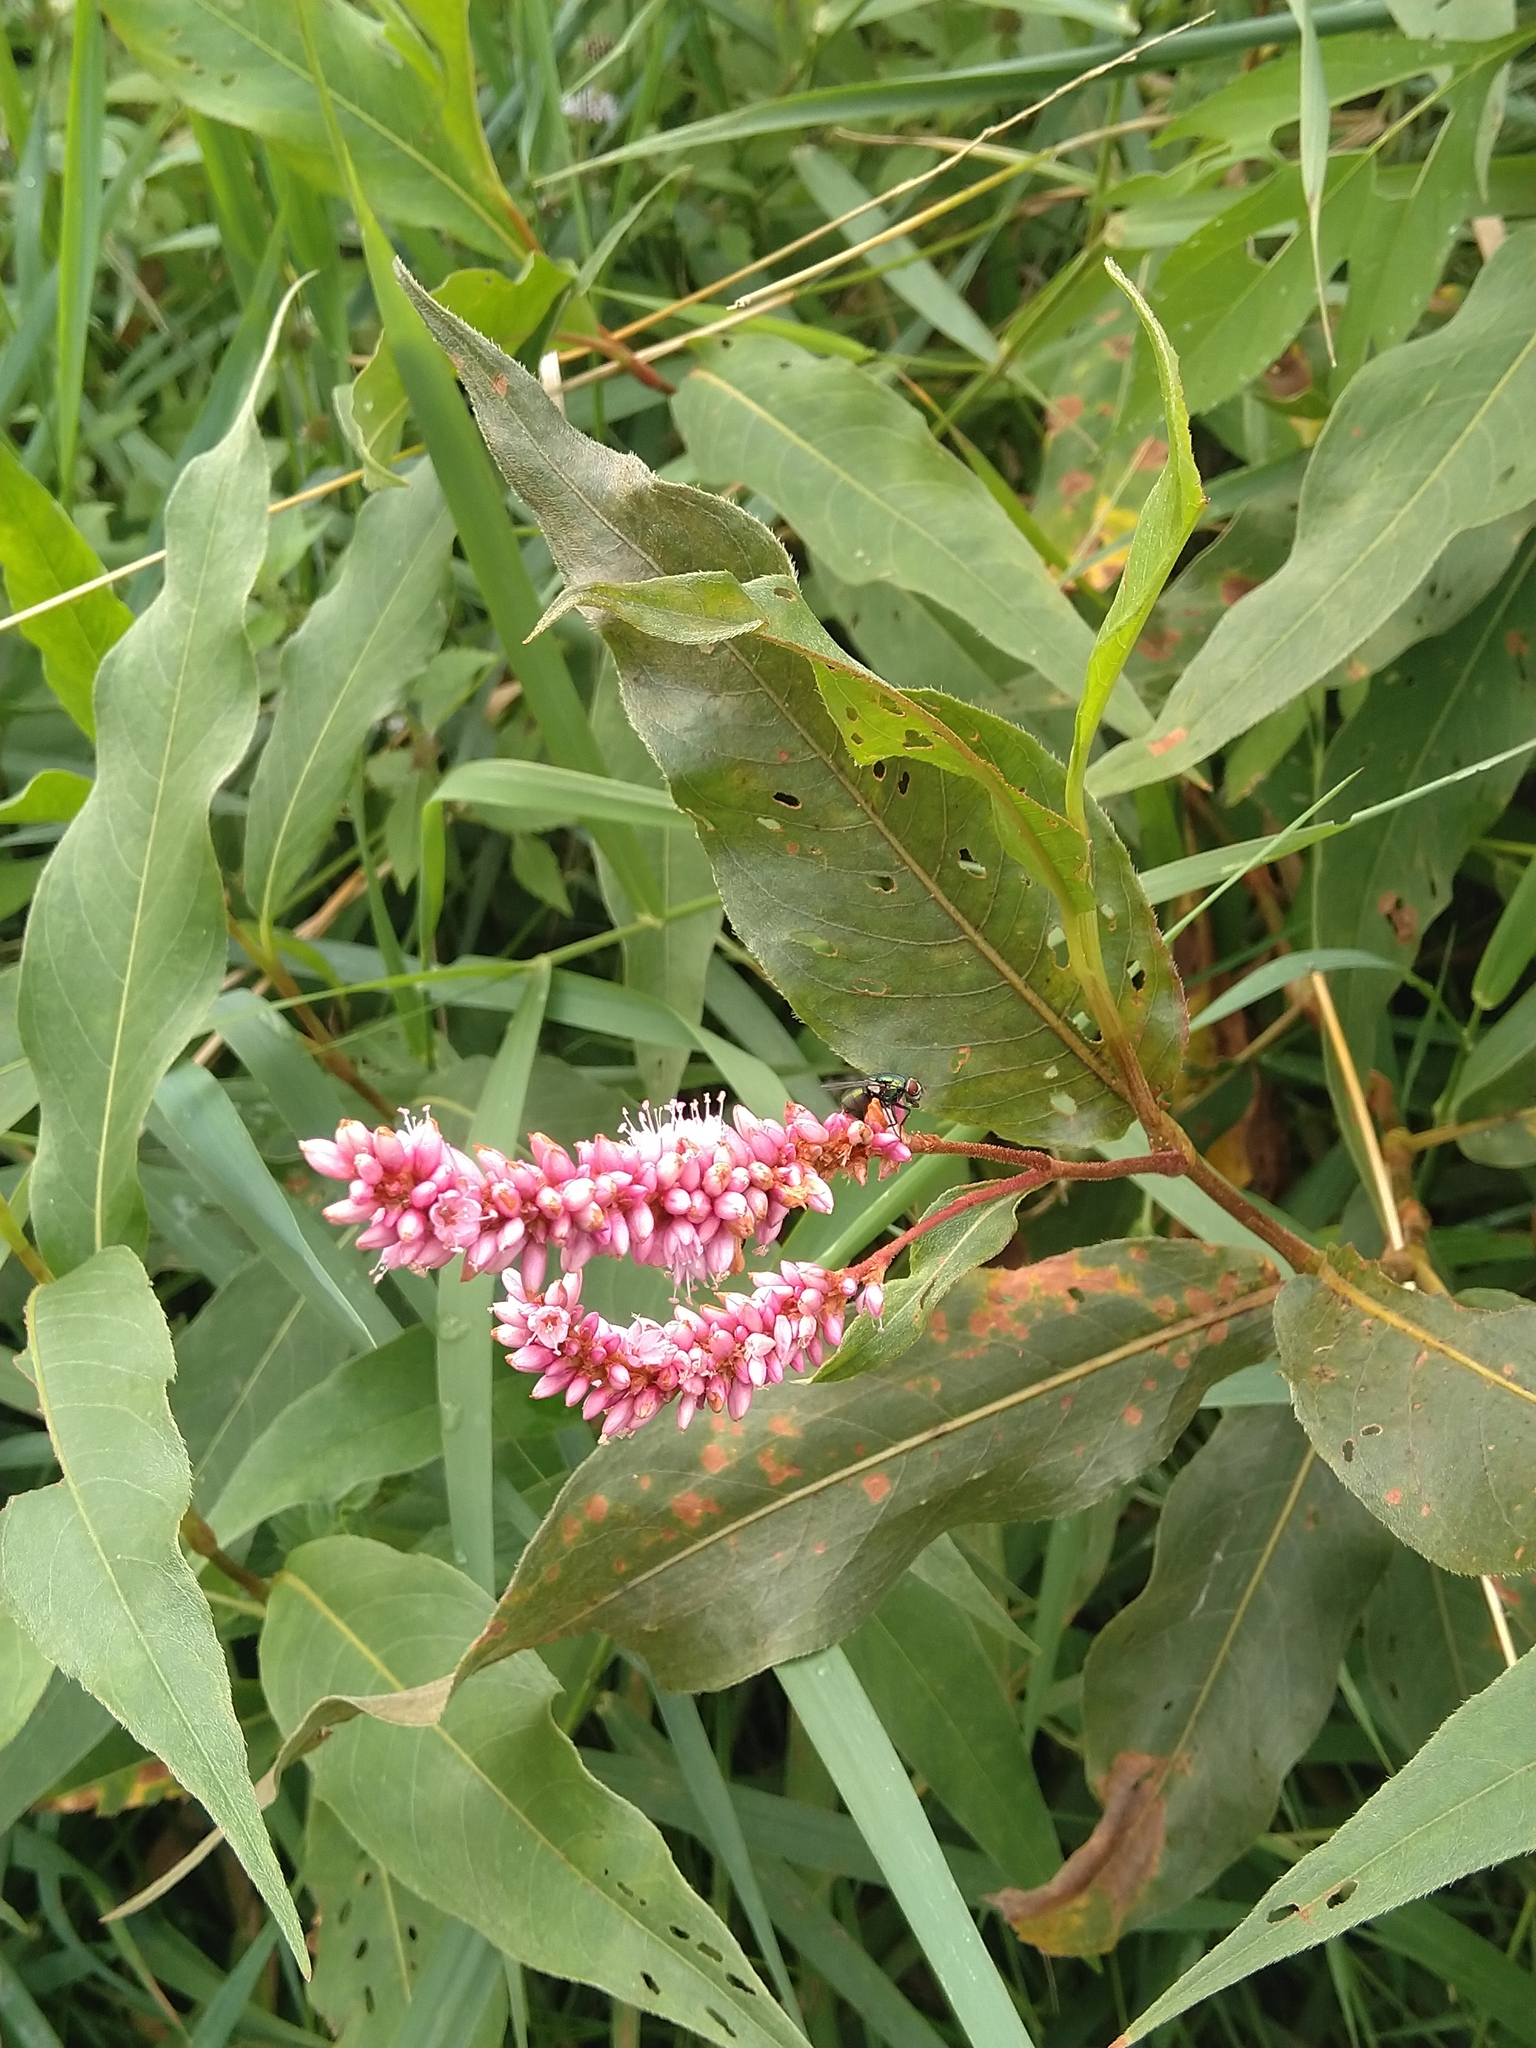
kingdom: Plantae
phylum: Tracheophyta
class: Magnoliopsida
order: Caryophyllales
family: Polygonaceae
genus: Persicaria
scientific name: Persicaria amphibia
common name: Amphibious bistort
